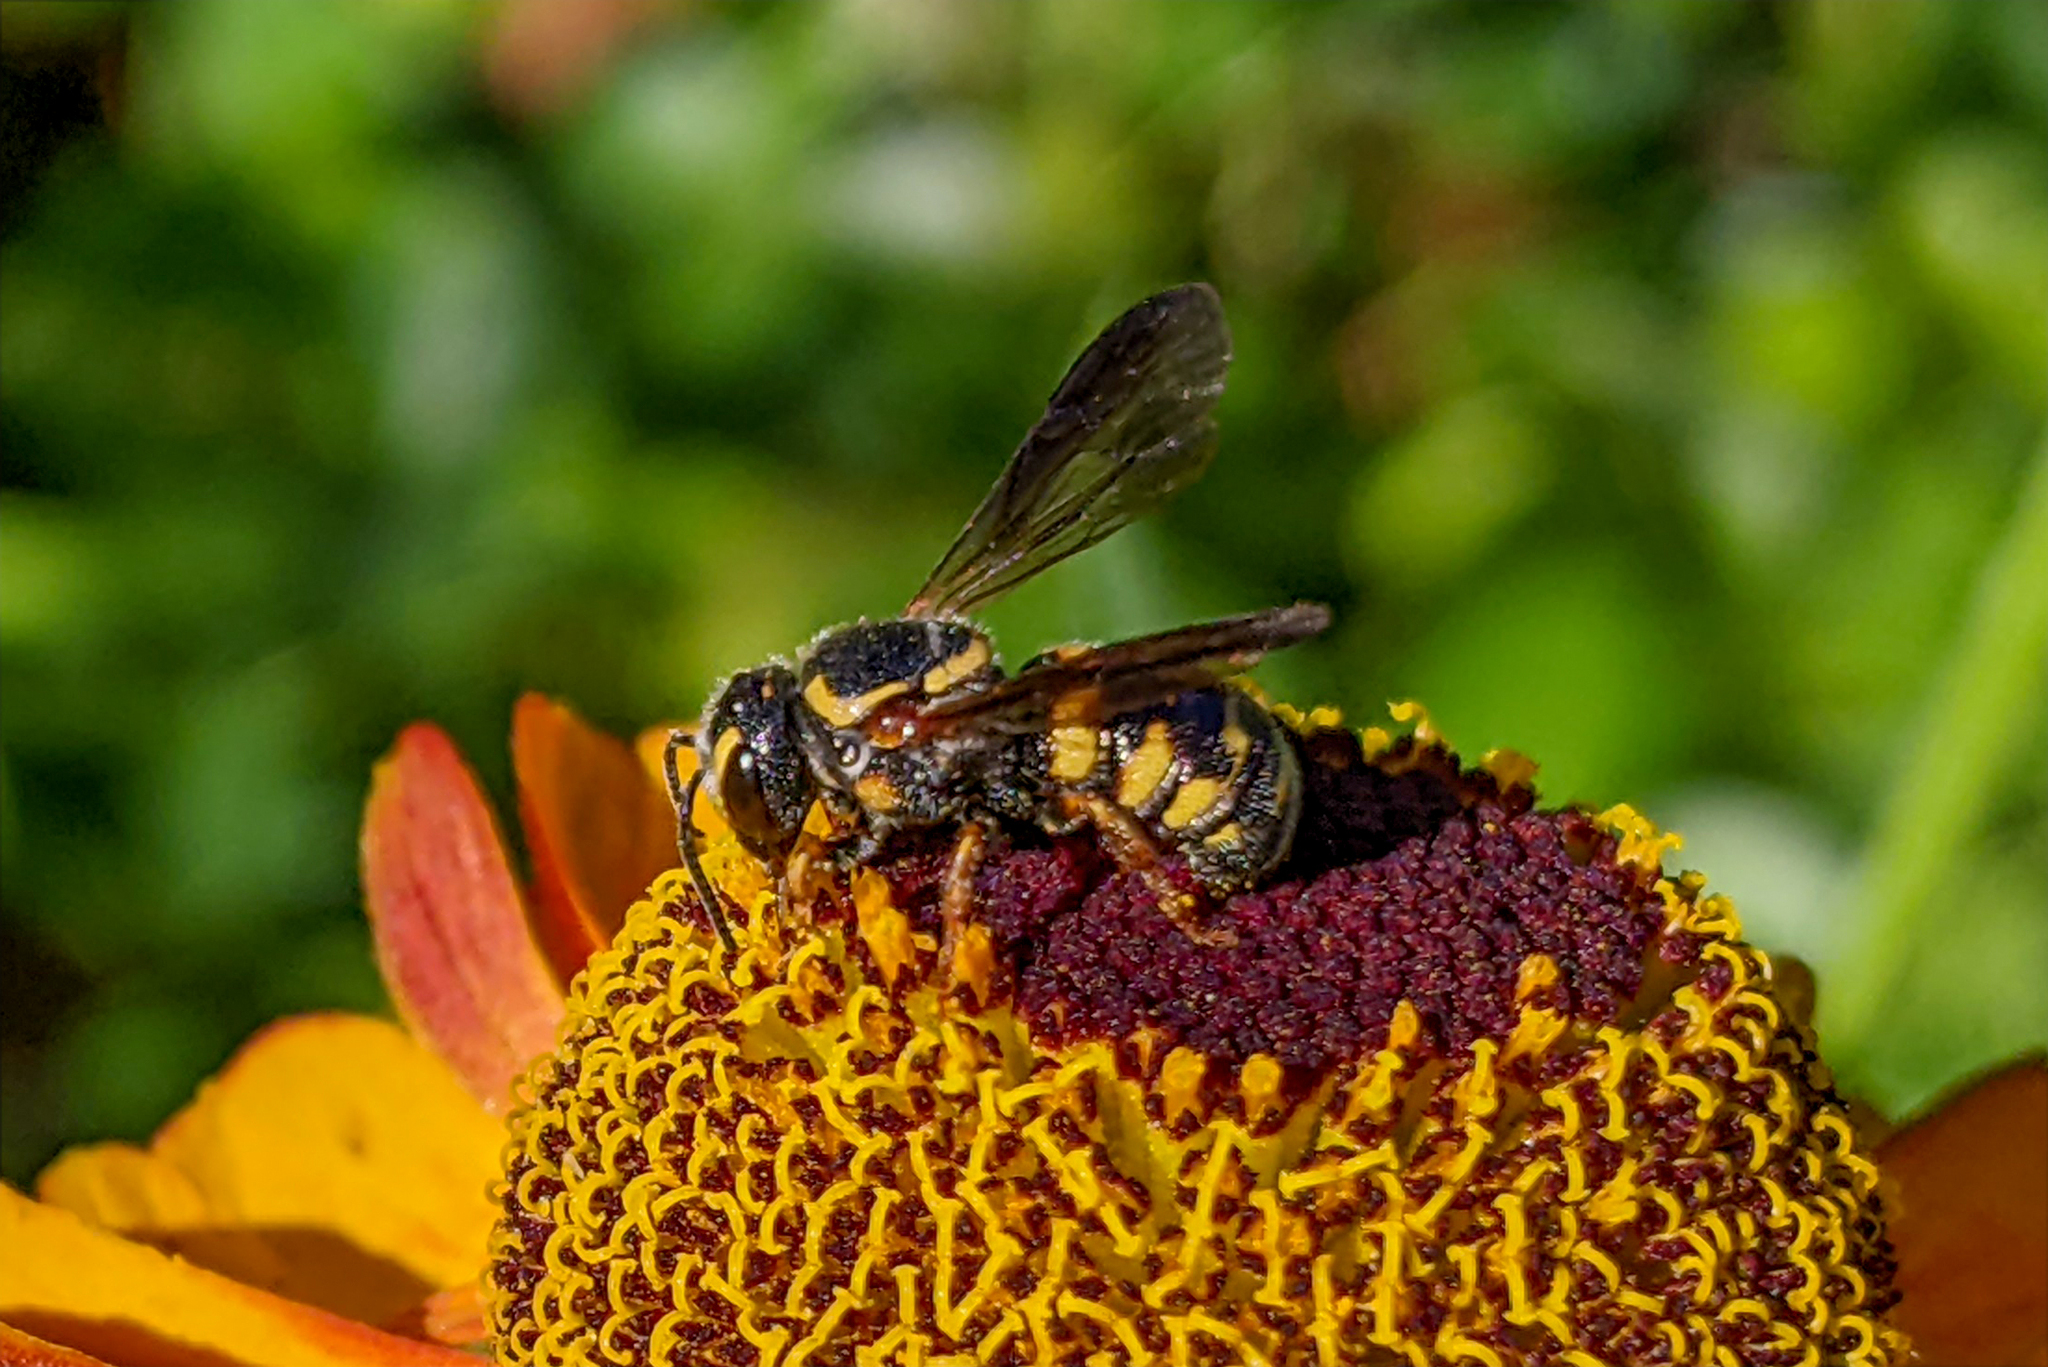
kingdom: Animalia
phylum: Arthropoda
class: Insecta
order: Hymenoptera
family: Megachilidae
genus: Stelis
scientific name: Stelis louisae
